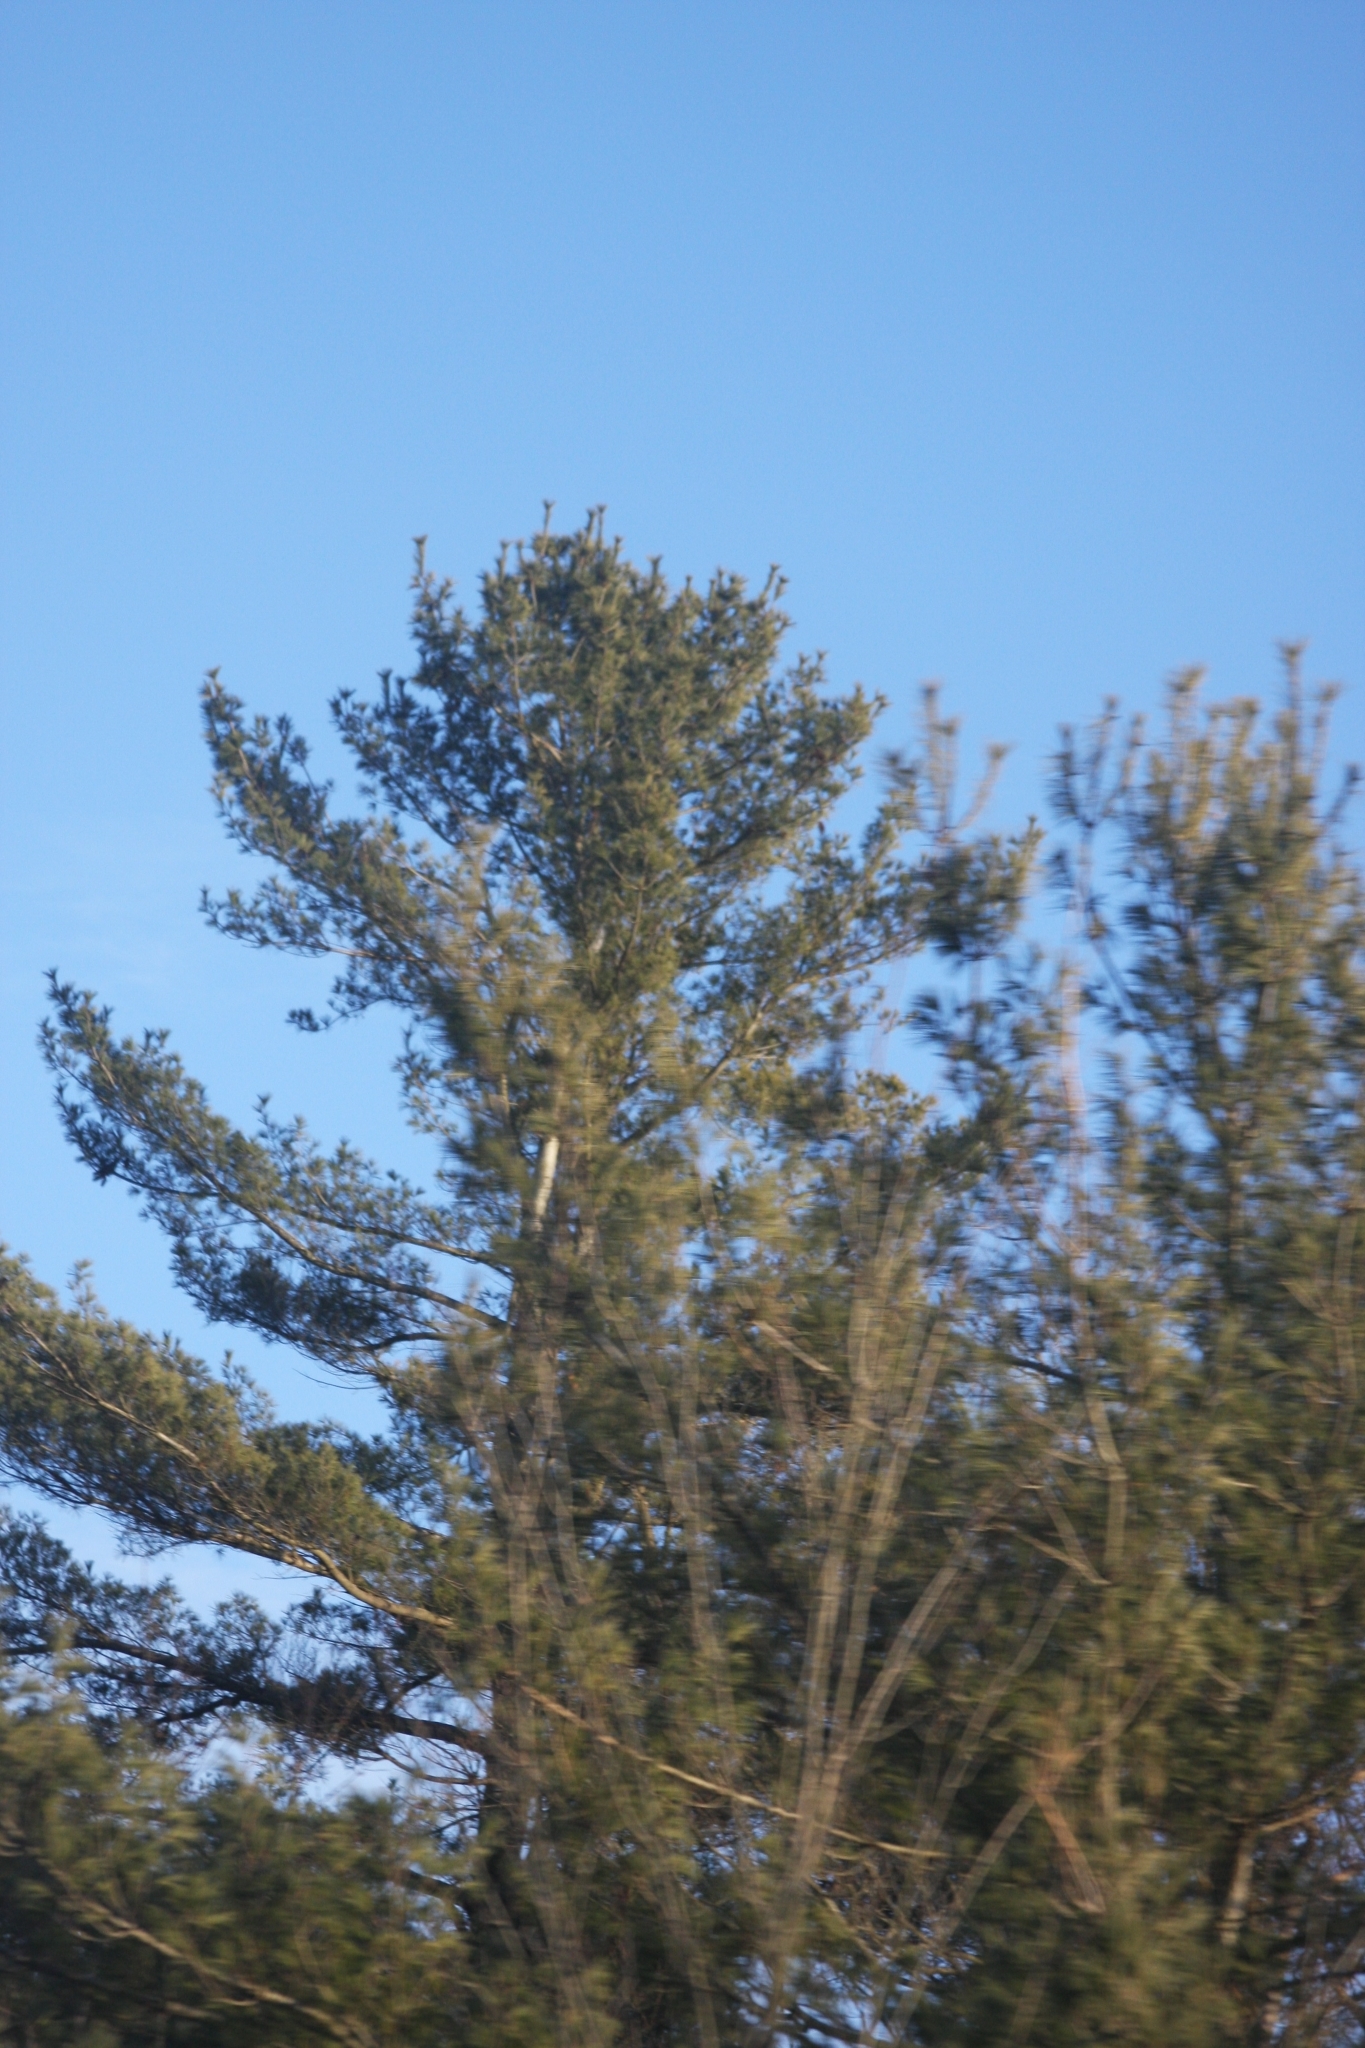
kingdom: Plantae
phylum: Tracheophyta
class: Pinopsida
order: Pinales
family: Pinaceae
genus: Pinus
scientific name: Pinus strobus
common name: Weymouth pine
